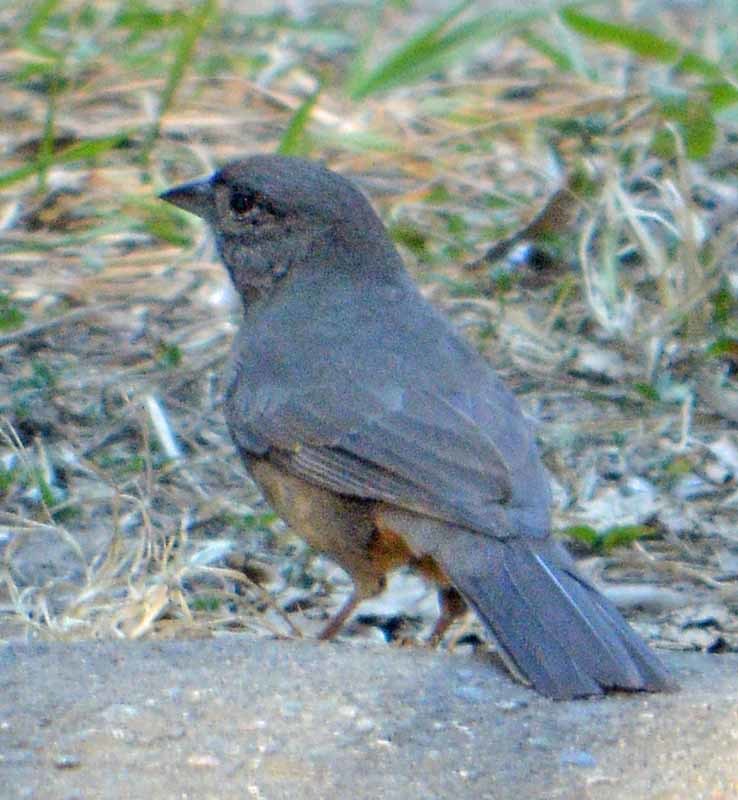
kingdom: Animalia
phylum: Chordata
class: Aves
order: Passeriformes
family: Passerellidae
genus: Melozone
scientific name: Melozone fusca
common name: Canyon towhee
